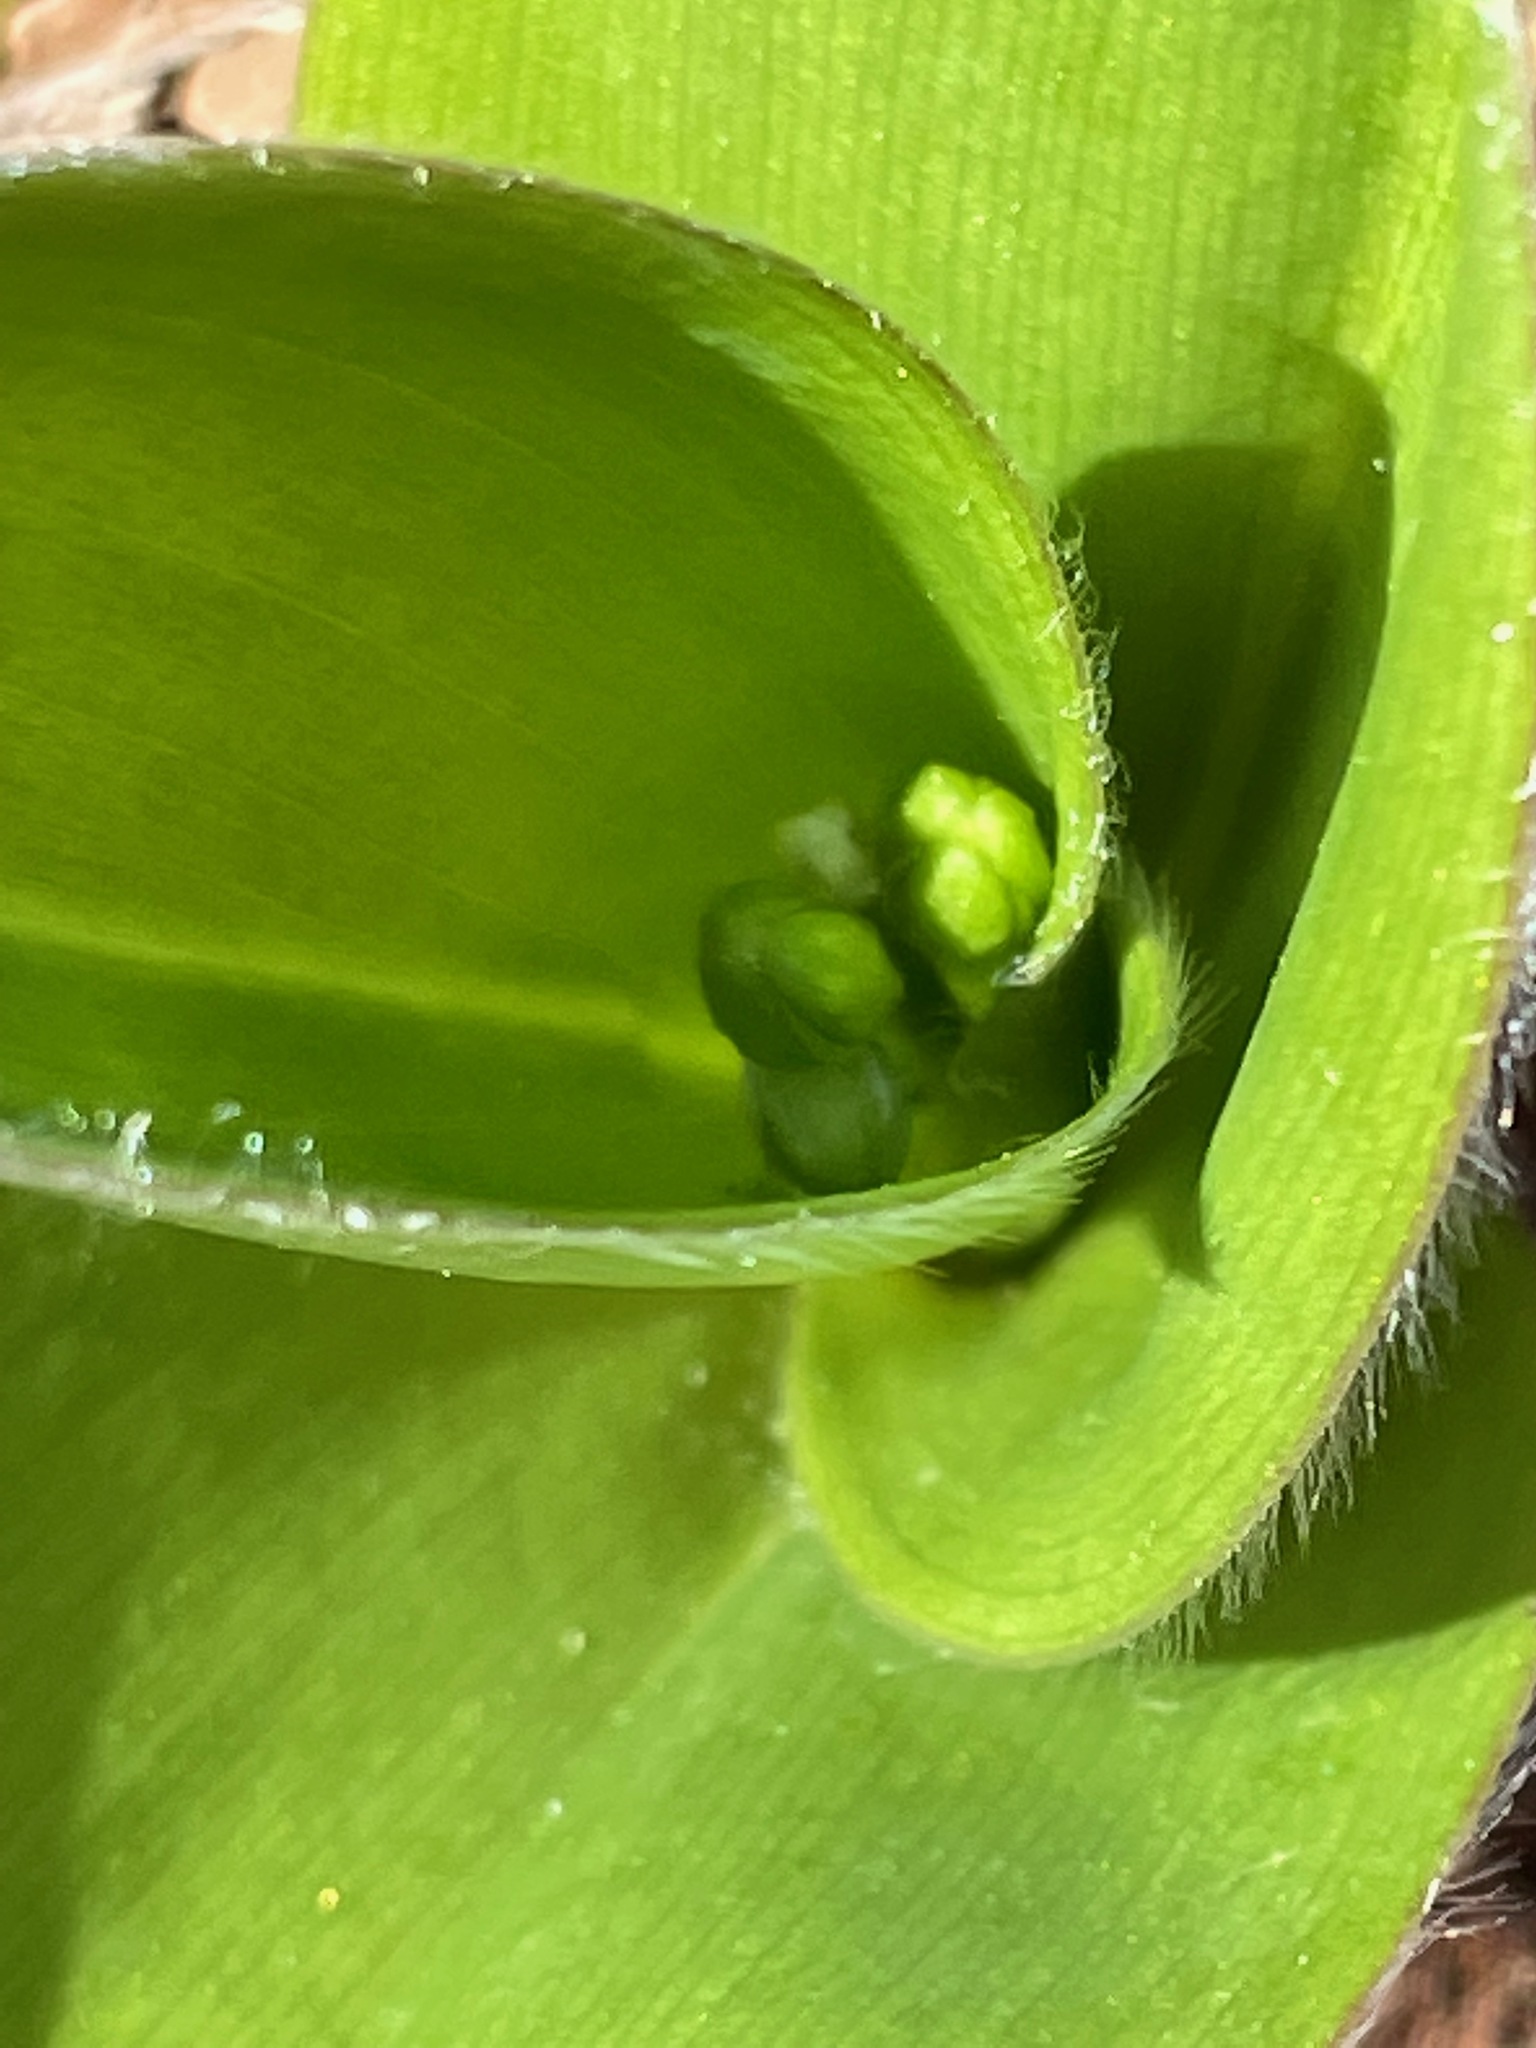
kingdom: Plantae
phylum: Tracheophyta
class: Liliopsida
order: Liliales
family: Liliaceae
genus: Clintonia
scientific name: Clintonia borealis
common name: Yellow clintonia
